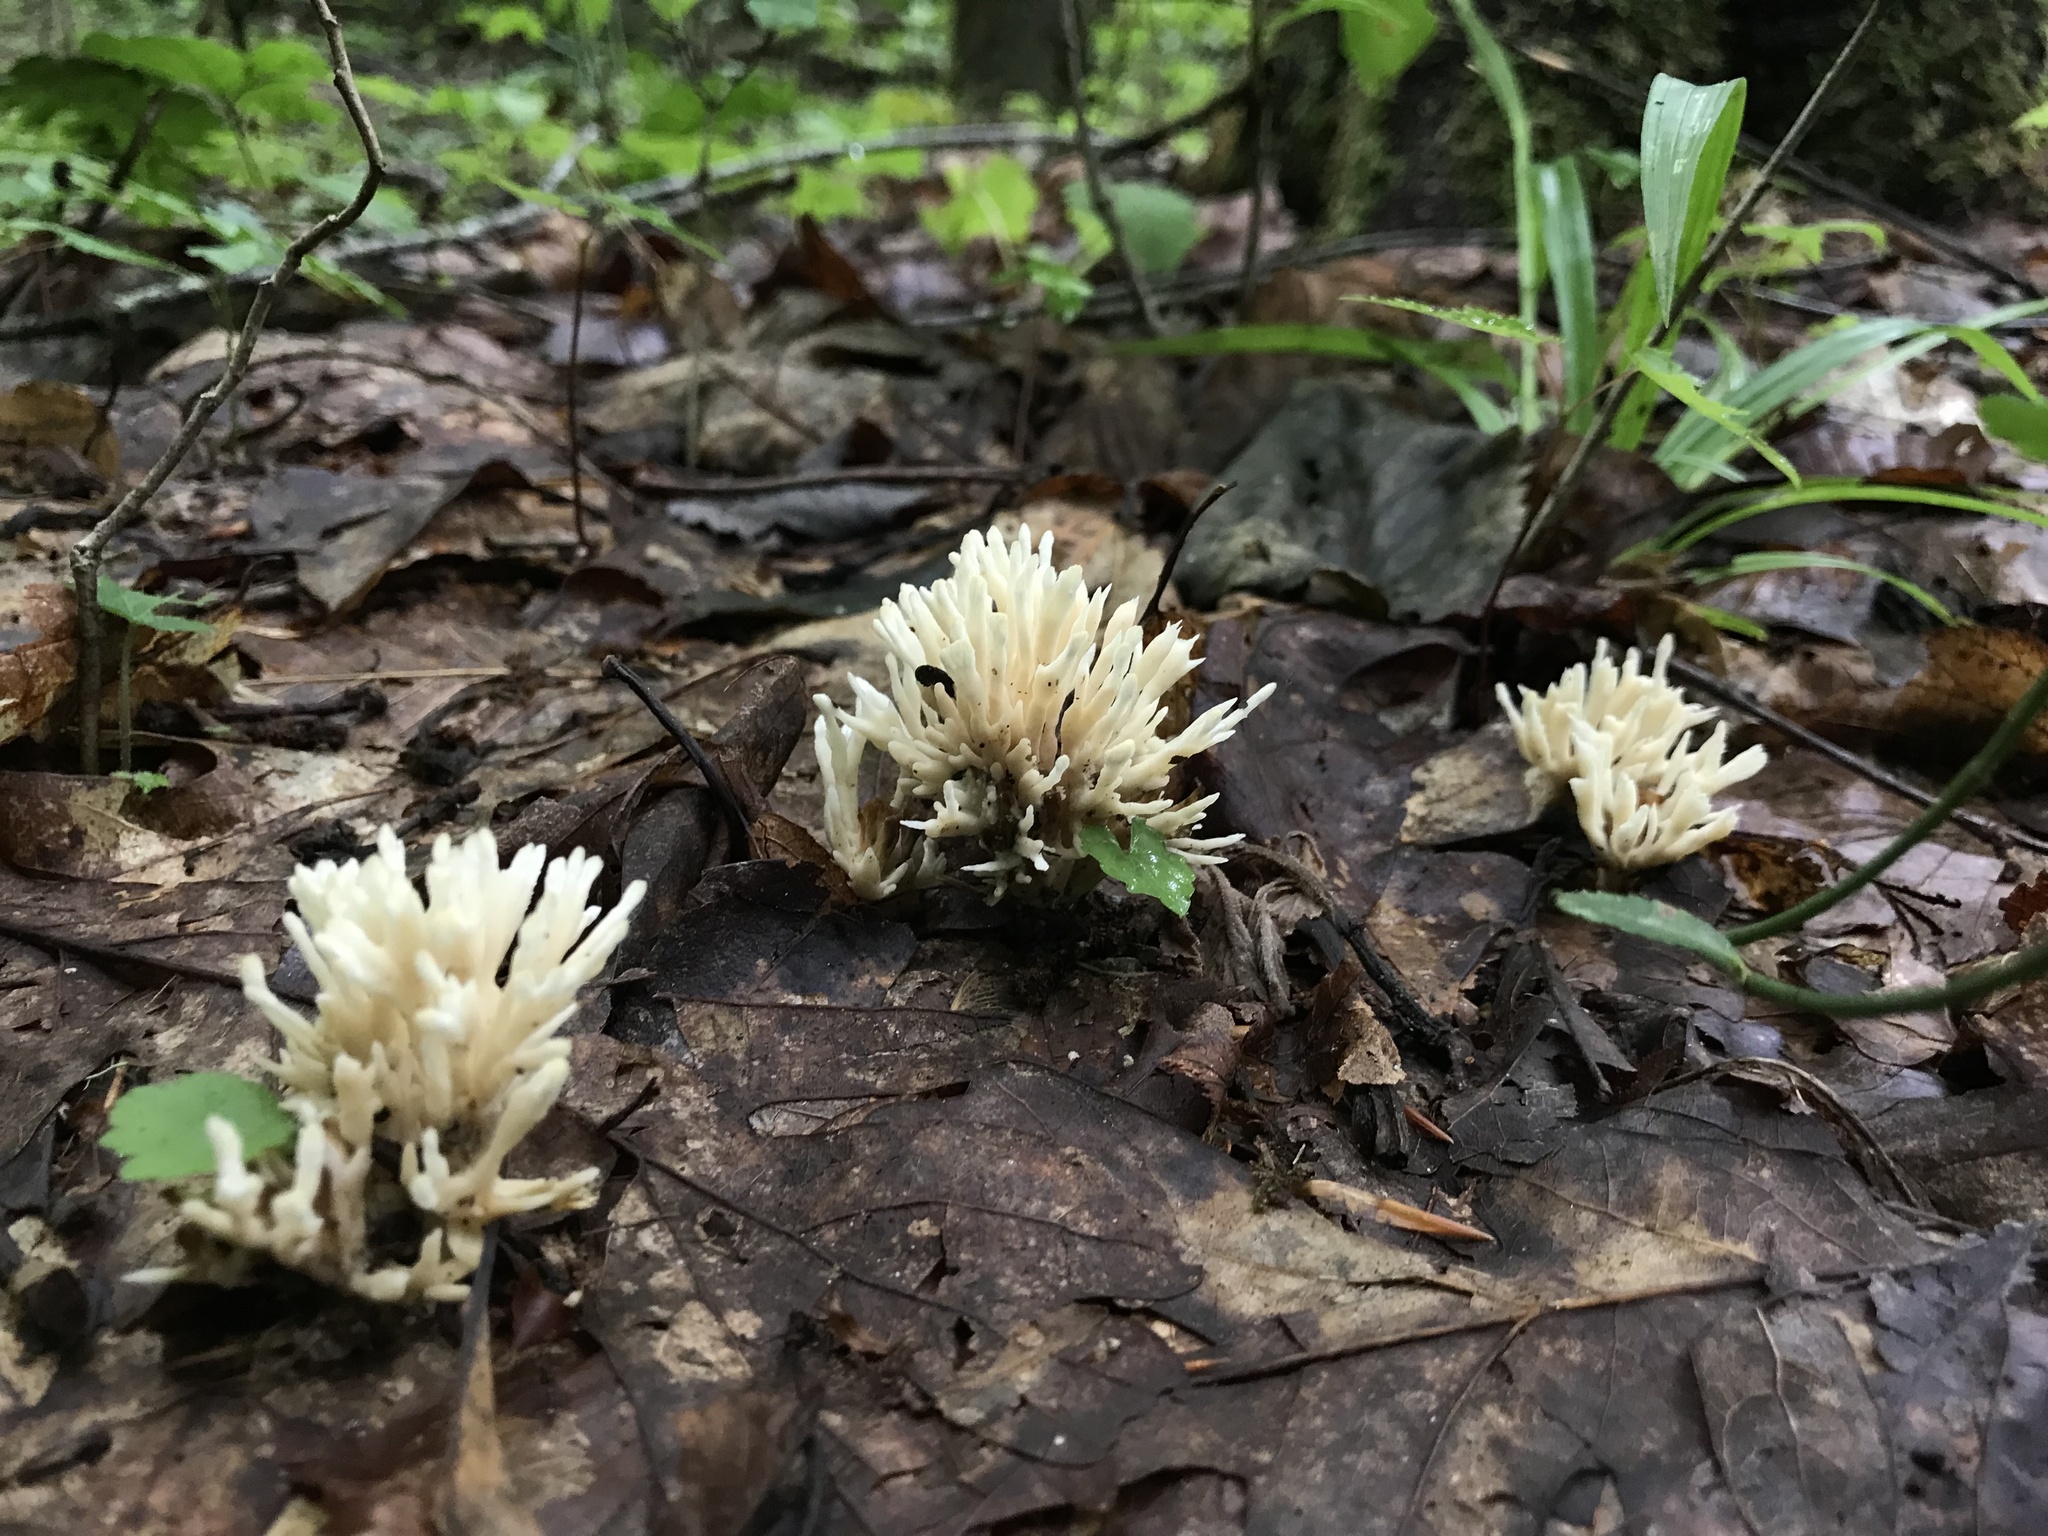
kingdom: Fungi
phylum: Basidiomycota
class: Agaricomycetes
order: Sebacinales
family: Sebacinaceae
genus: Sebacina
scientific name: Sebacina schweinitzii
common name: Jellied false coral fungus
